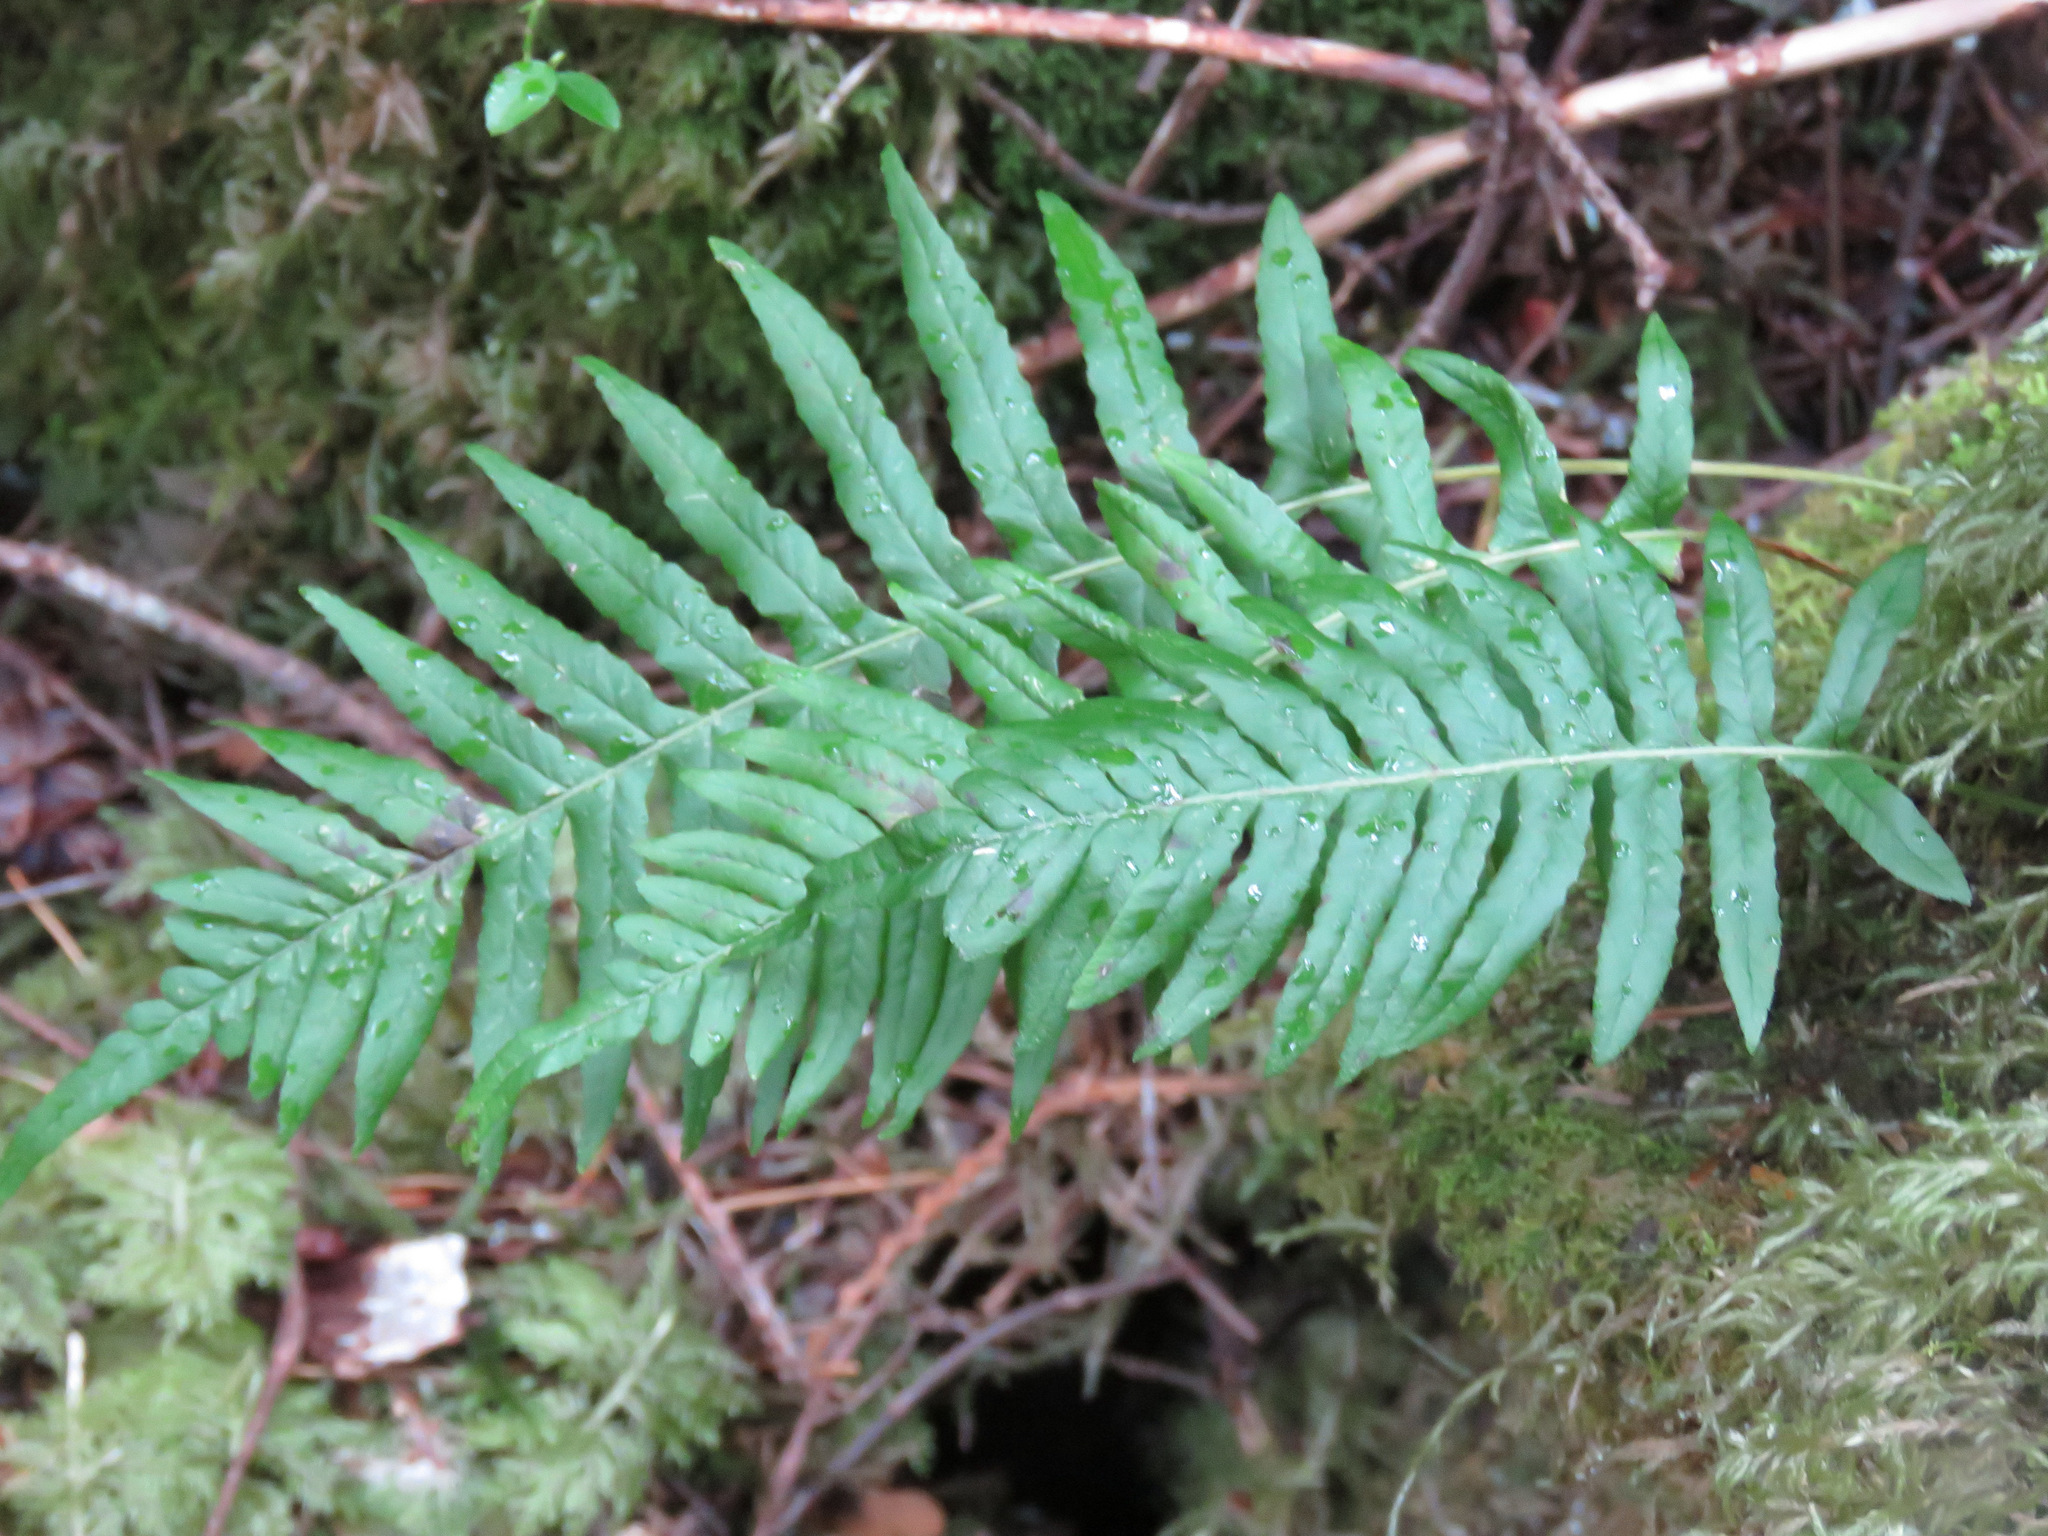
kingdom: Plantae
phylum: Tracheophyta
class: Polypodiopsida
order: Polypodiales
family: Polypodiaceae
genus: Polypodium
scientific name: Polypodium glycyrrhiza
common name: Licorice fern
